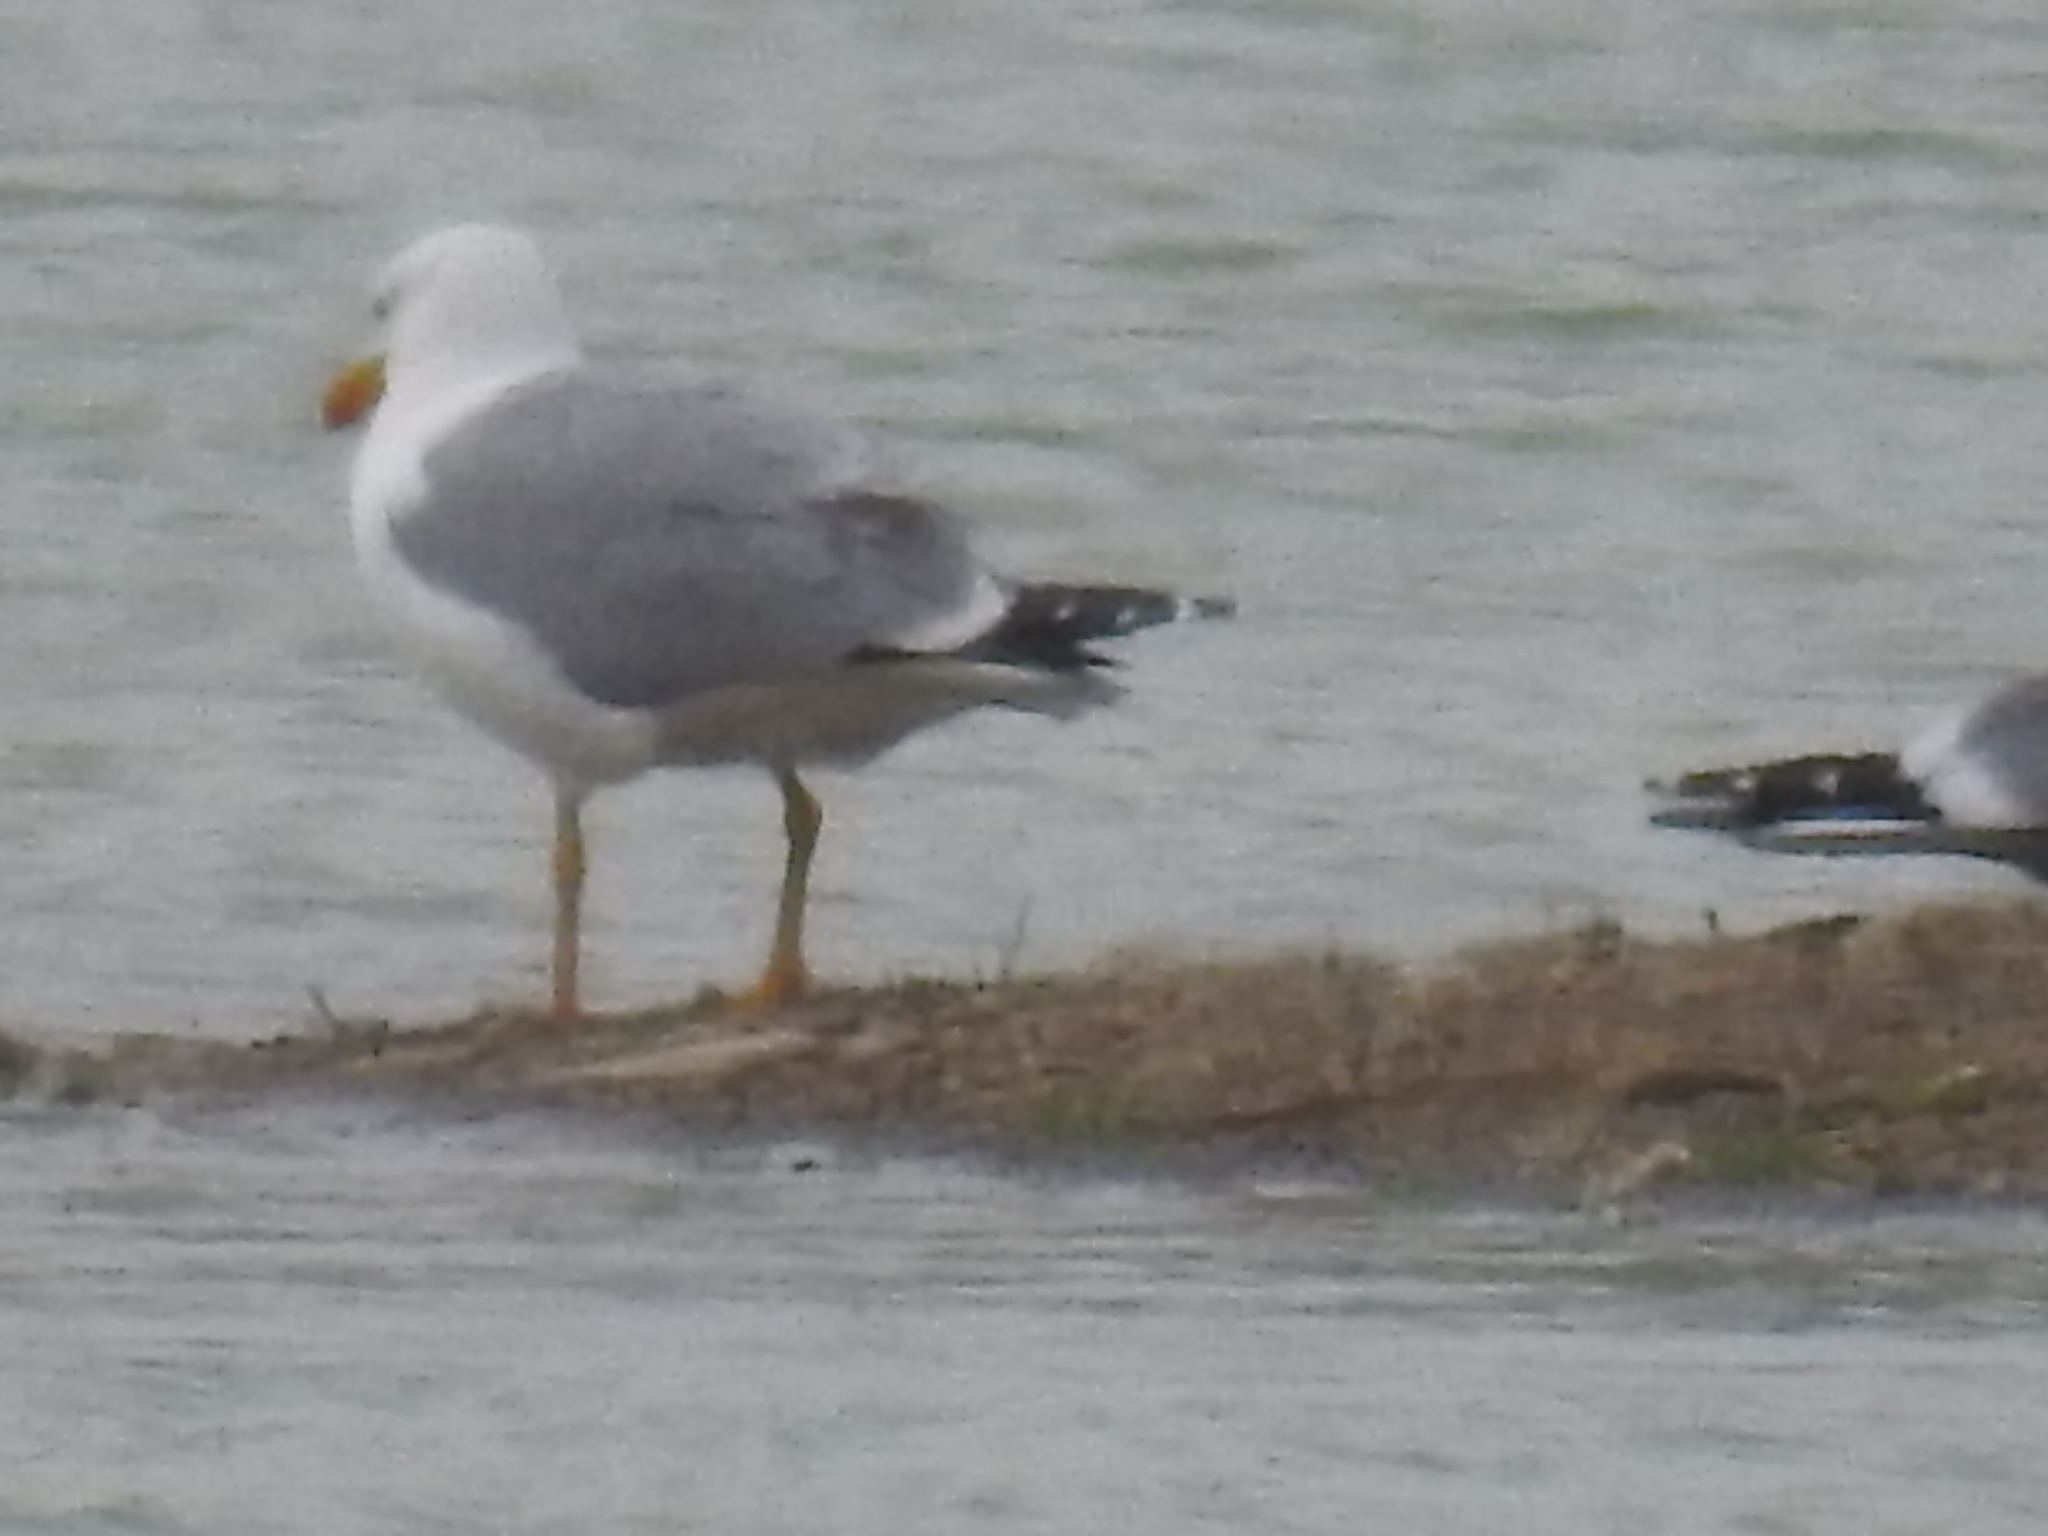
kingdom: Animalia
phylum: Chordata
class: Aves
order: Charadriiformes
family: Laridae
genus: Larus
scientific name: Larus michahellis
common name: Yellow-legged gull
